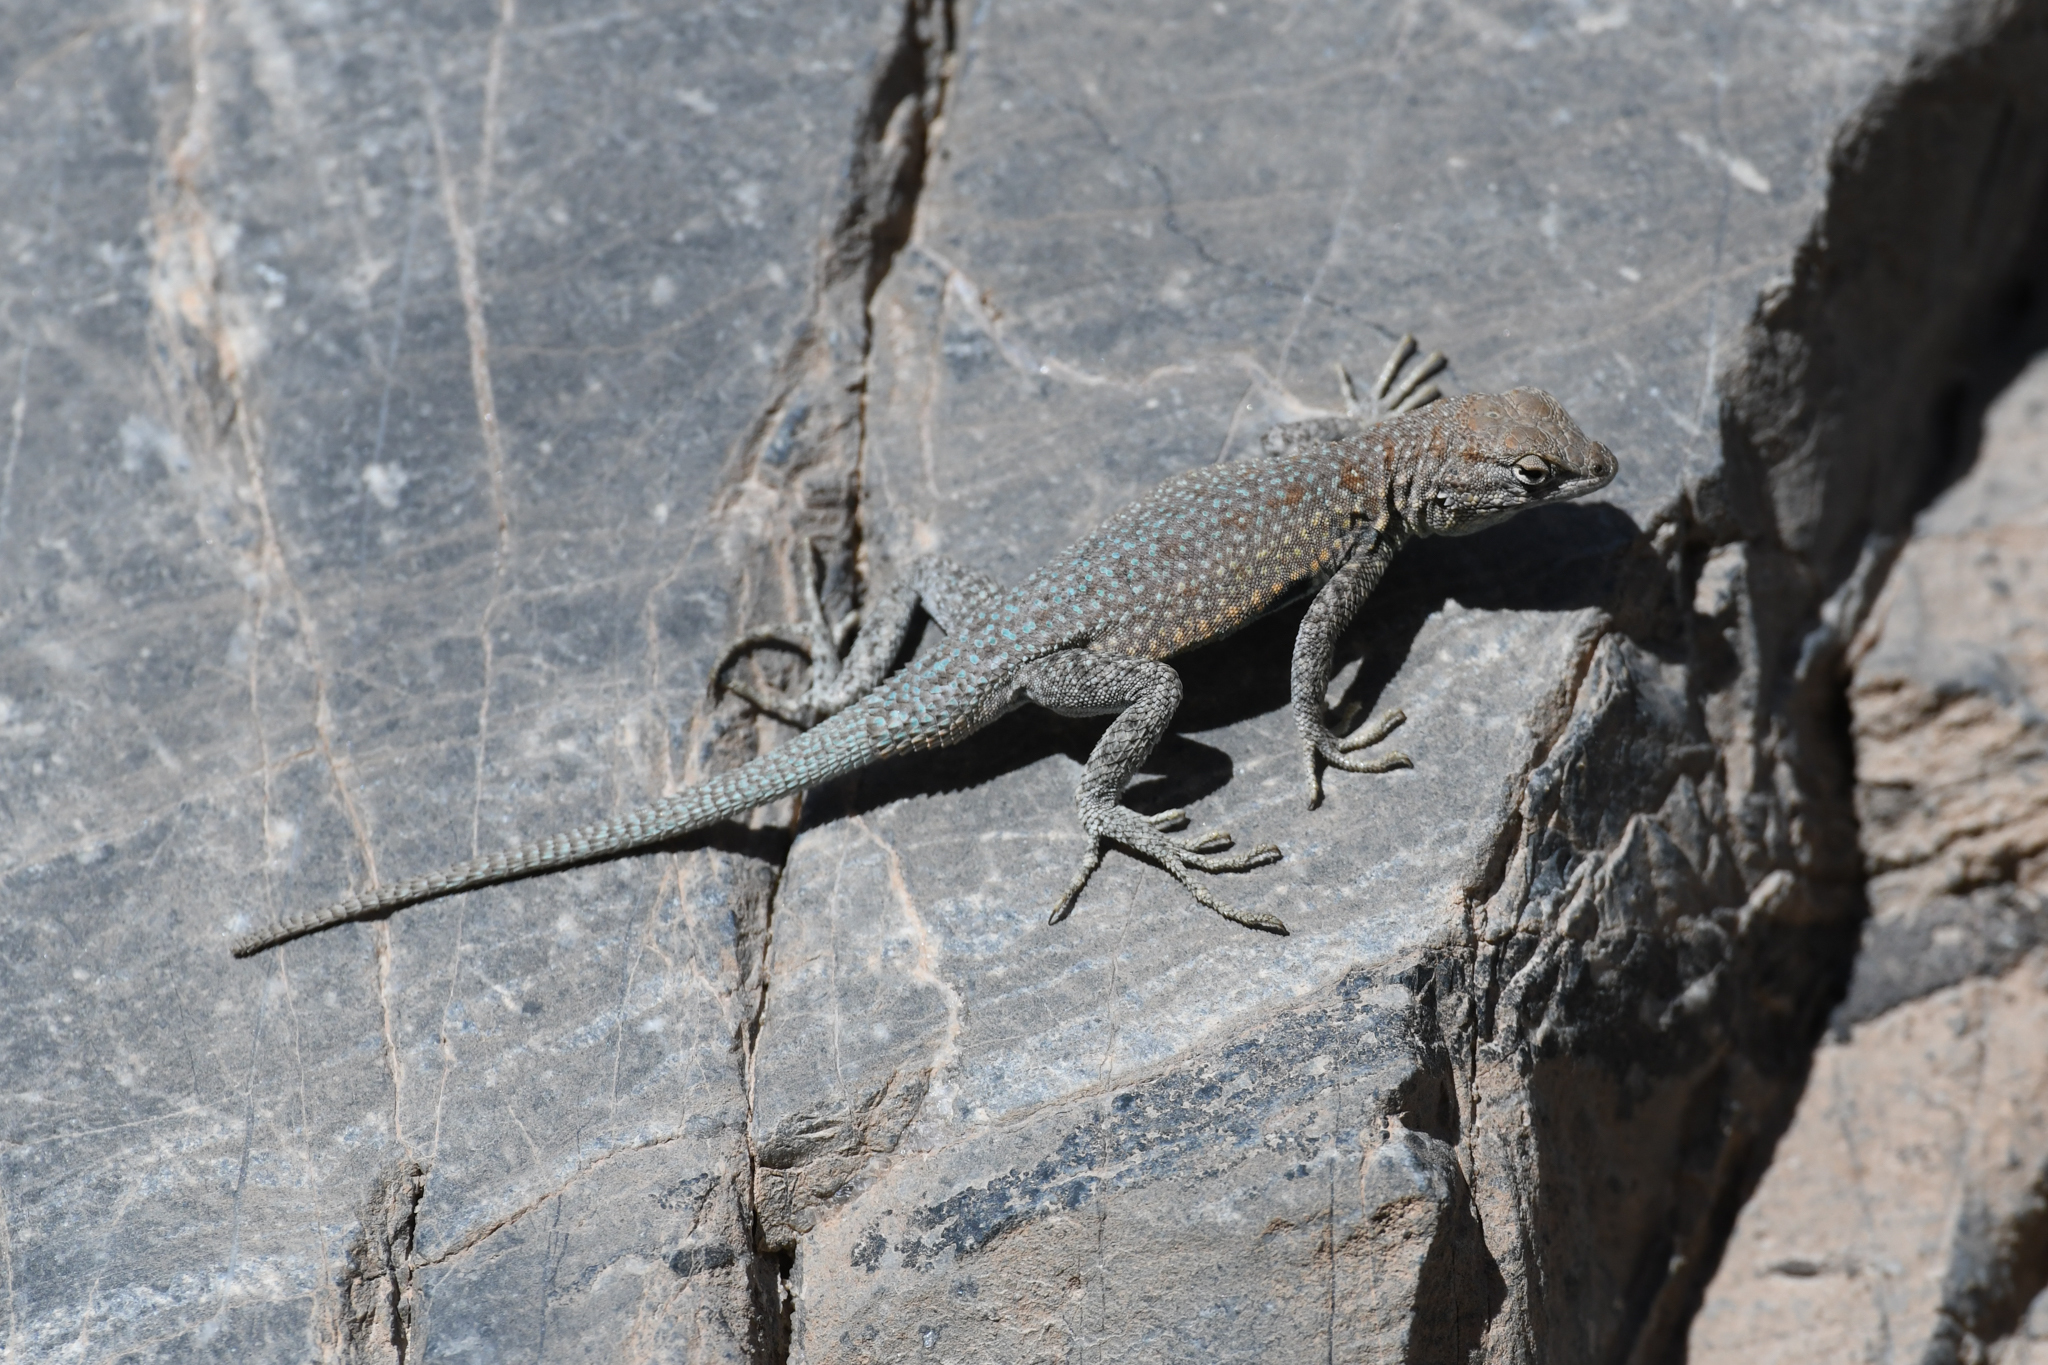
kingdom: Animalia
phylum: Chordata
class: Squamata
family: Phrynosomatidae
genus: Uta
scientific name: Uta stansburiana
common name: Side-blotched lizard
